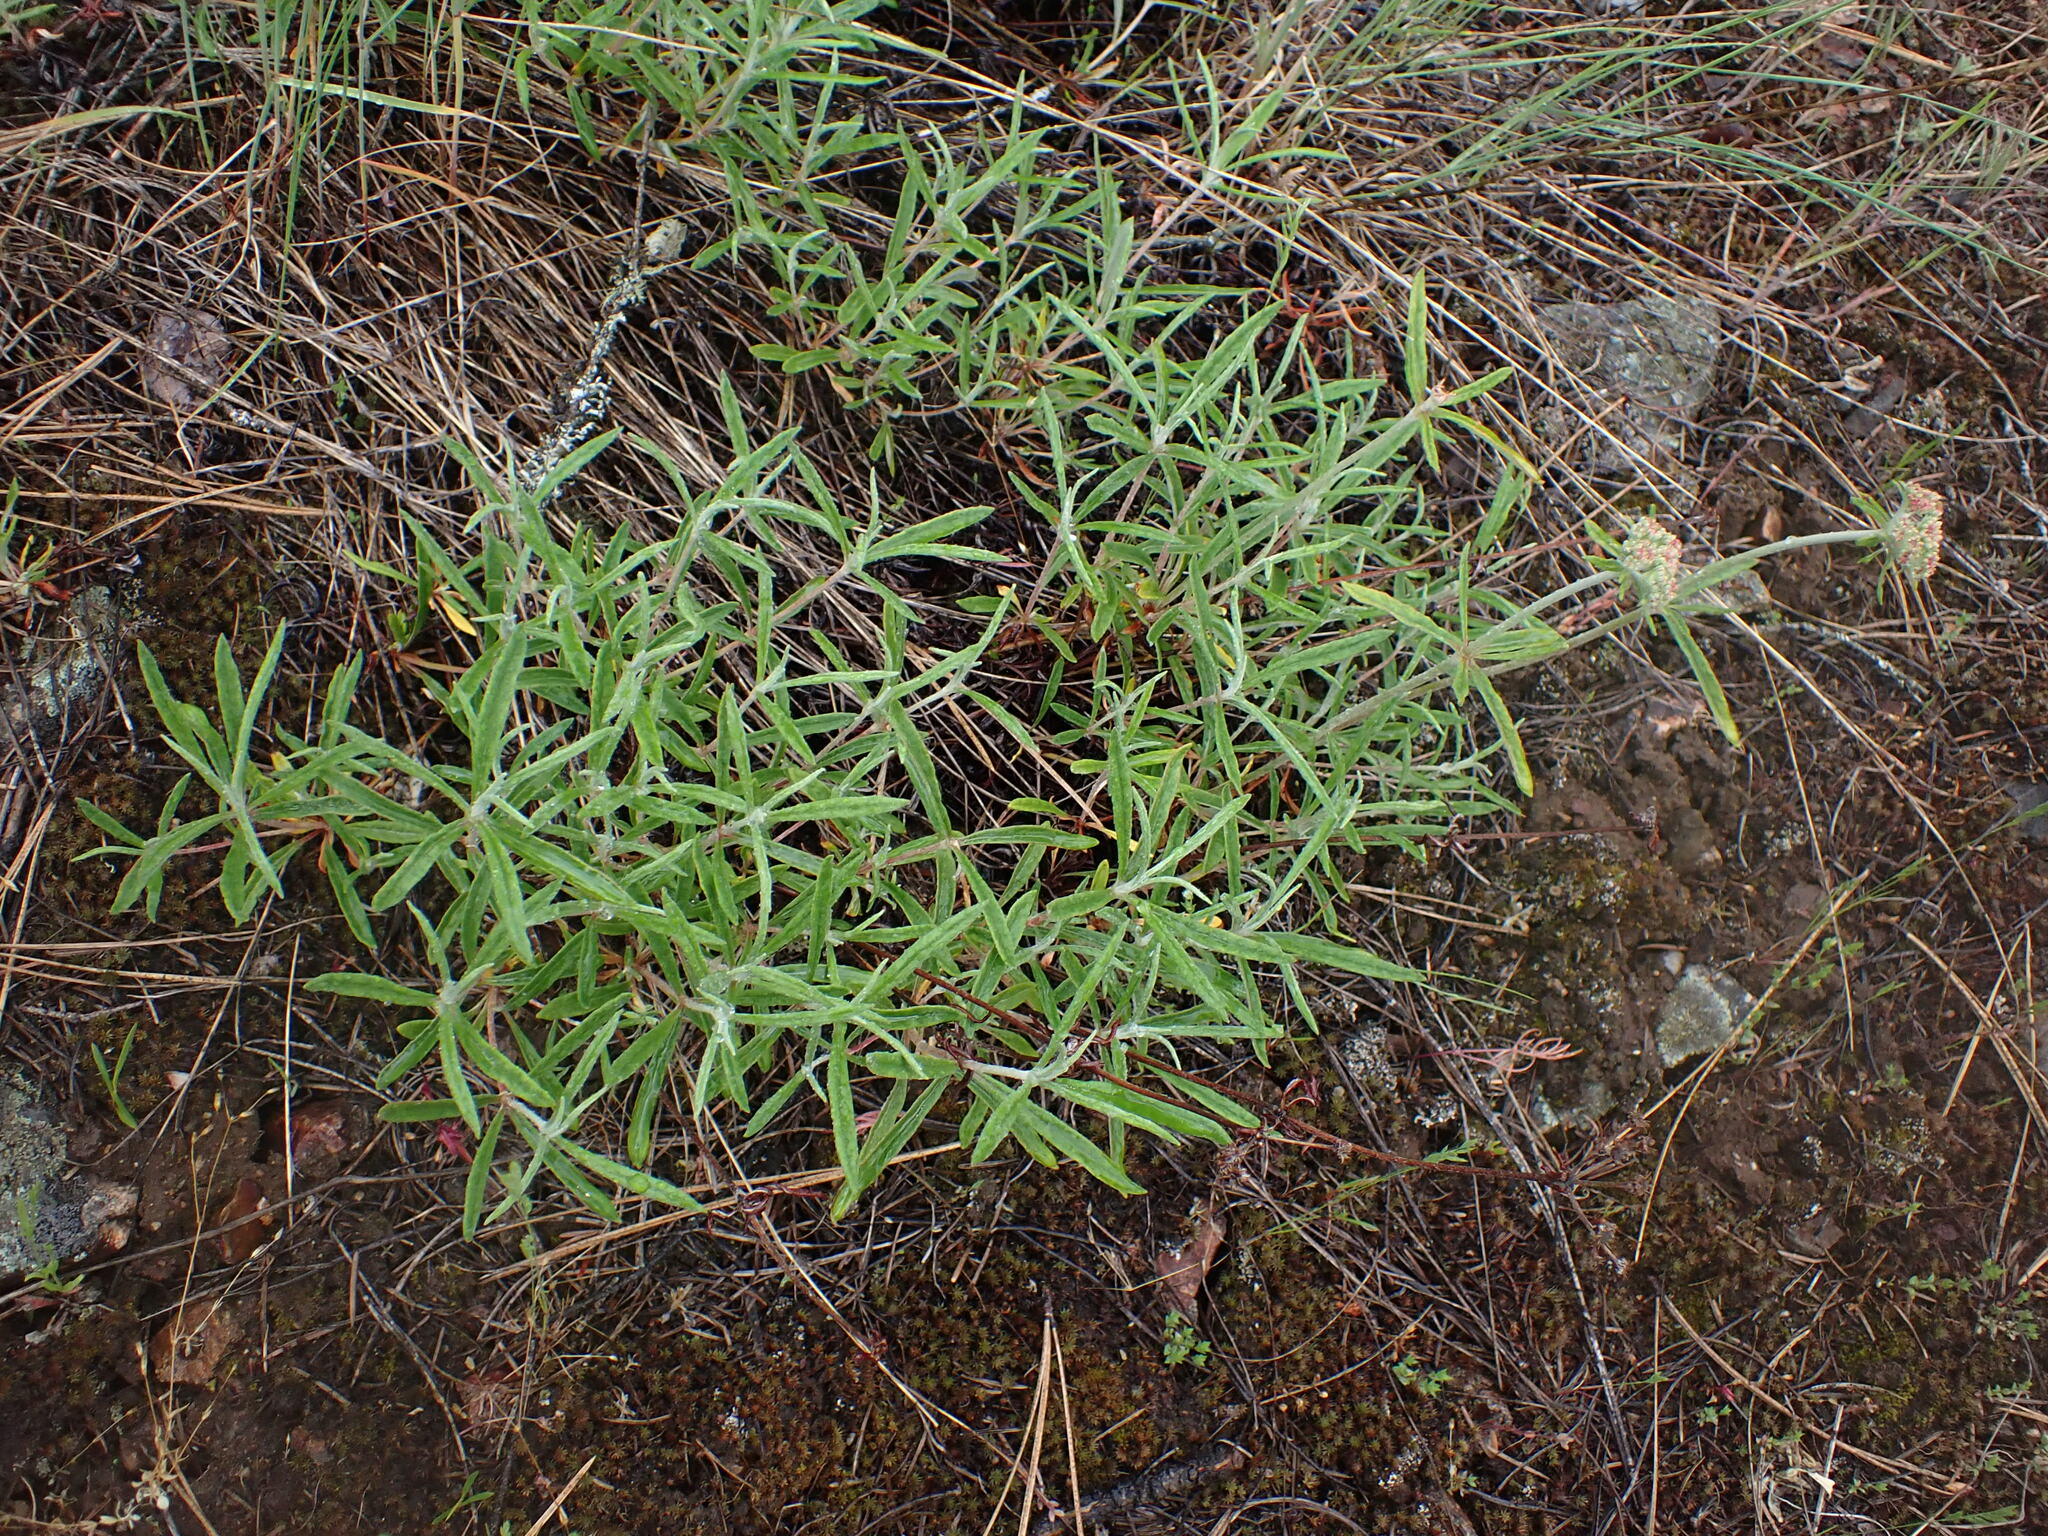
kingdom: Plantae
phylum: Tracheophyta
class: Magnoliopsida
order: Caryophyllales
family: Polygonaceae
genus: Eriogonum
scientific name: Eriogonum heracleoides
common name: Wyeth's buckwheat
